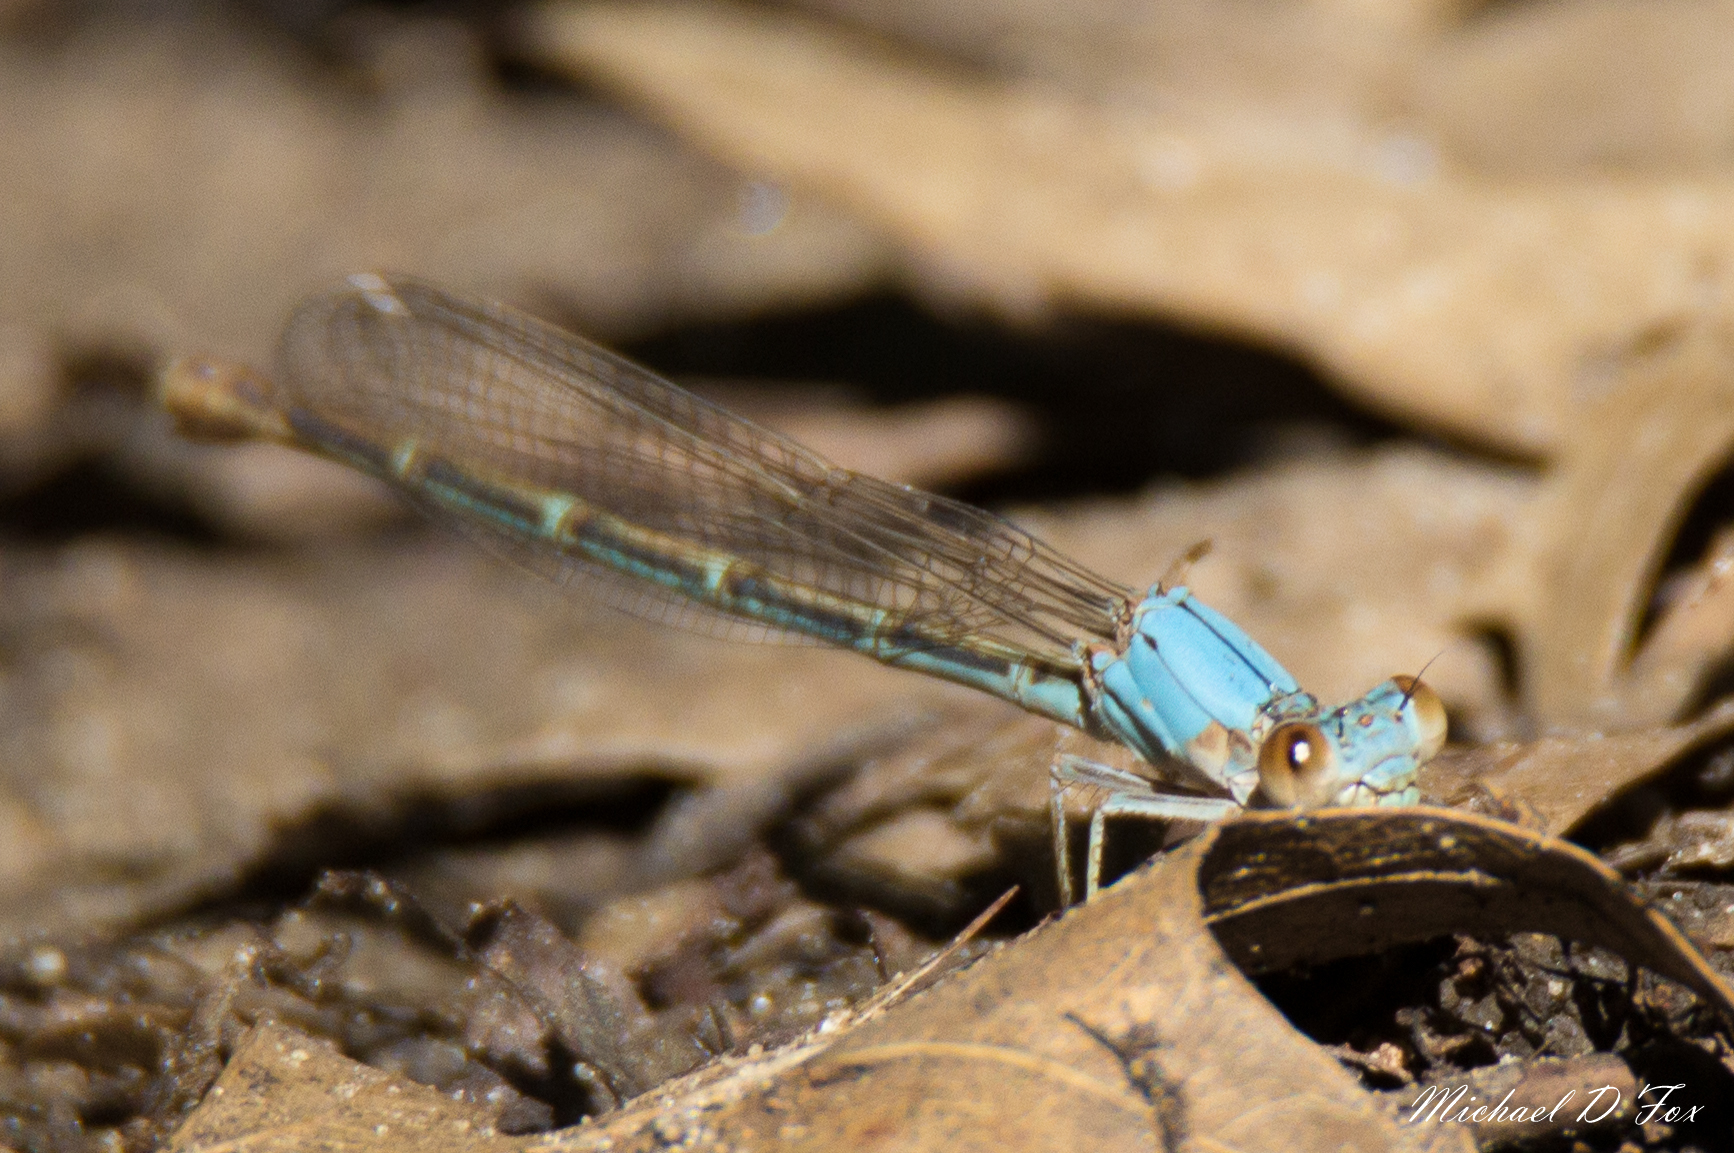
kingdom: Animalia
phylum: Arthropoda
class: Insecta
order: Odonata
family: Coenagrionidae
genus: Argia
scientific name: Argia moesta
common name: Powdered dancer
